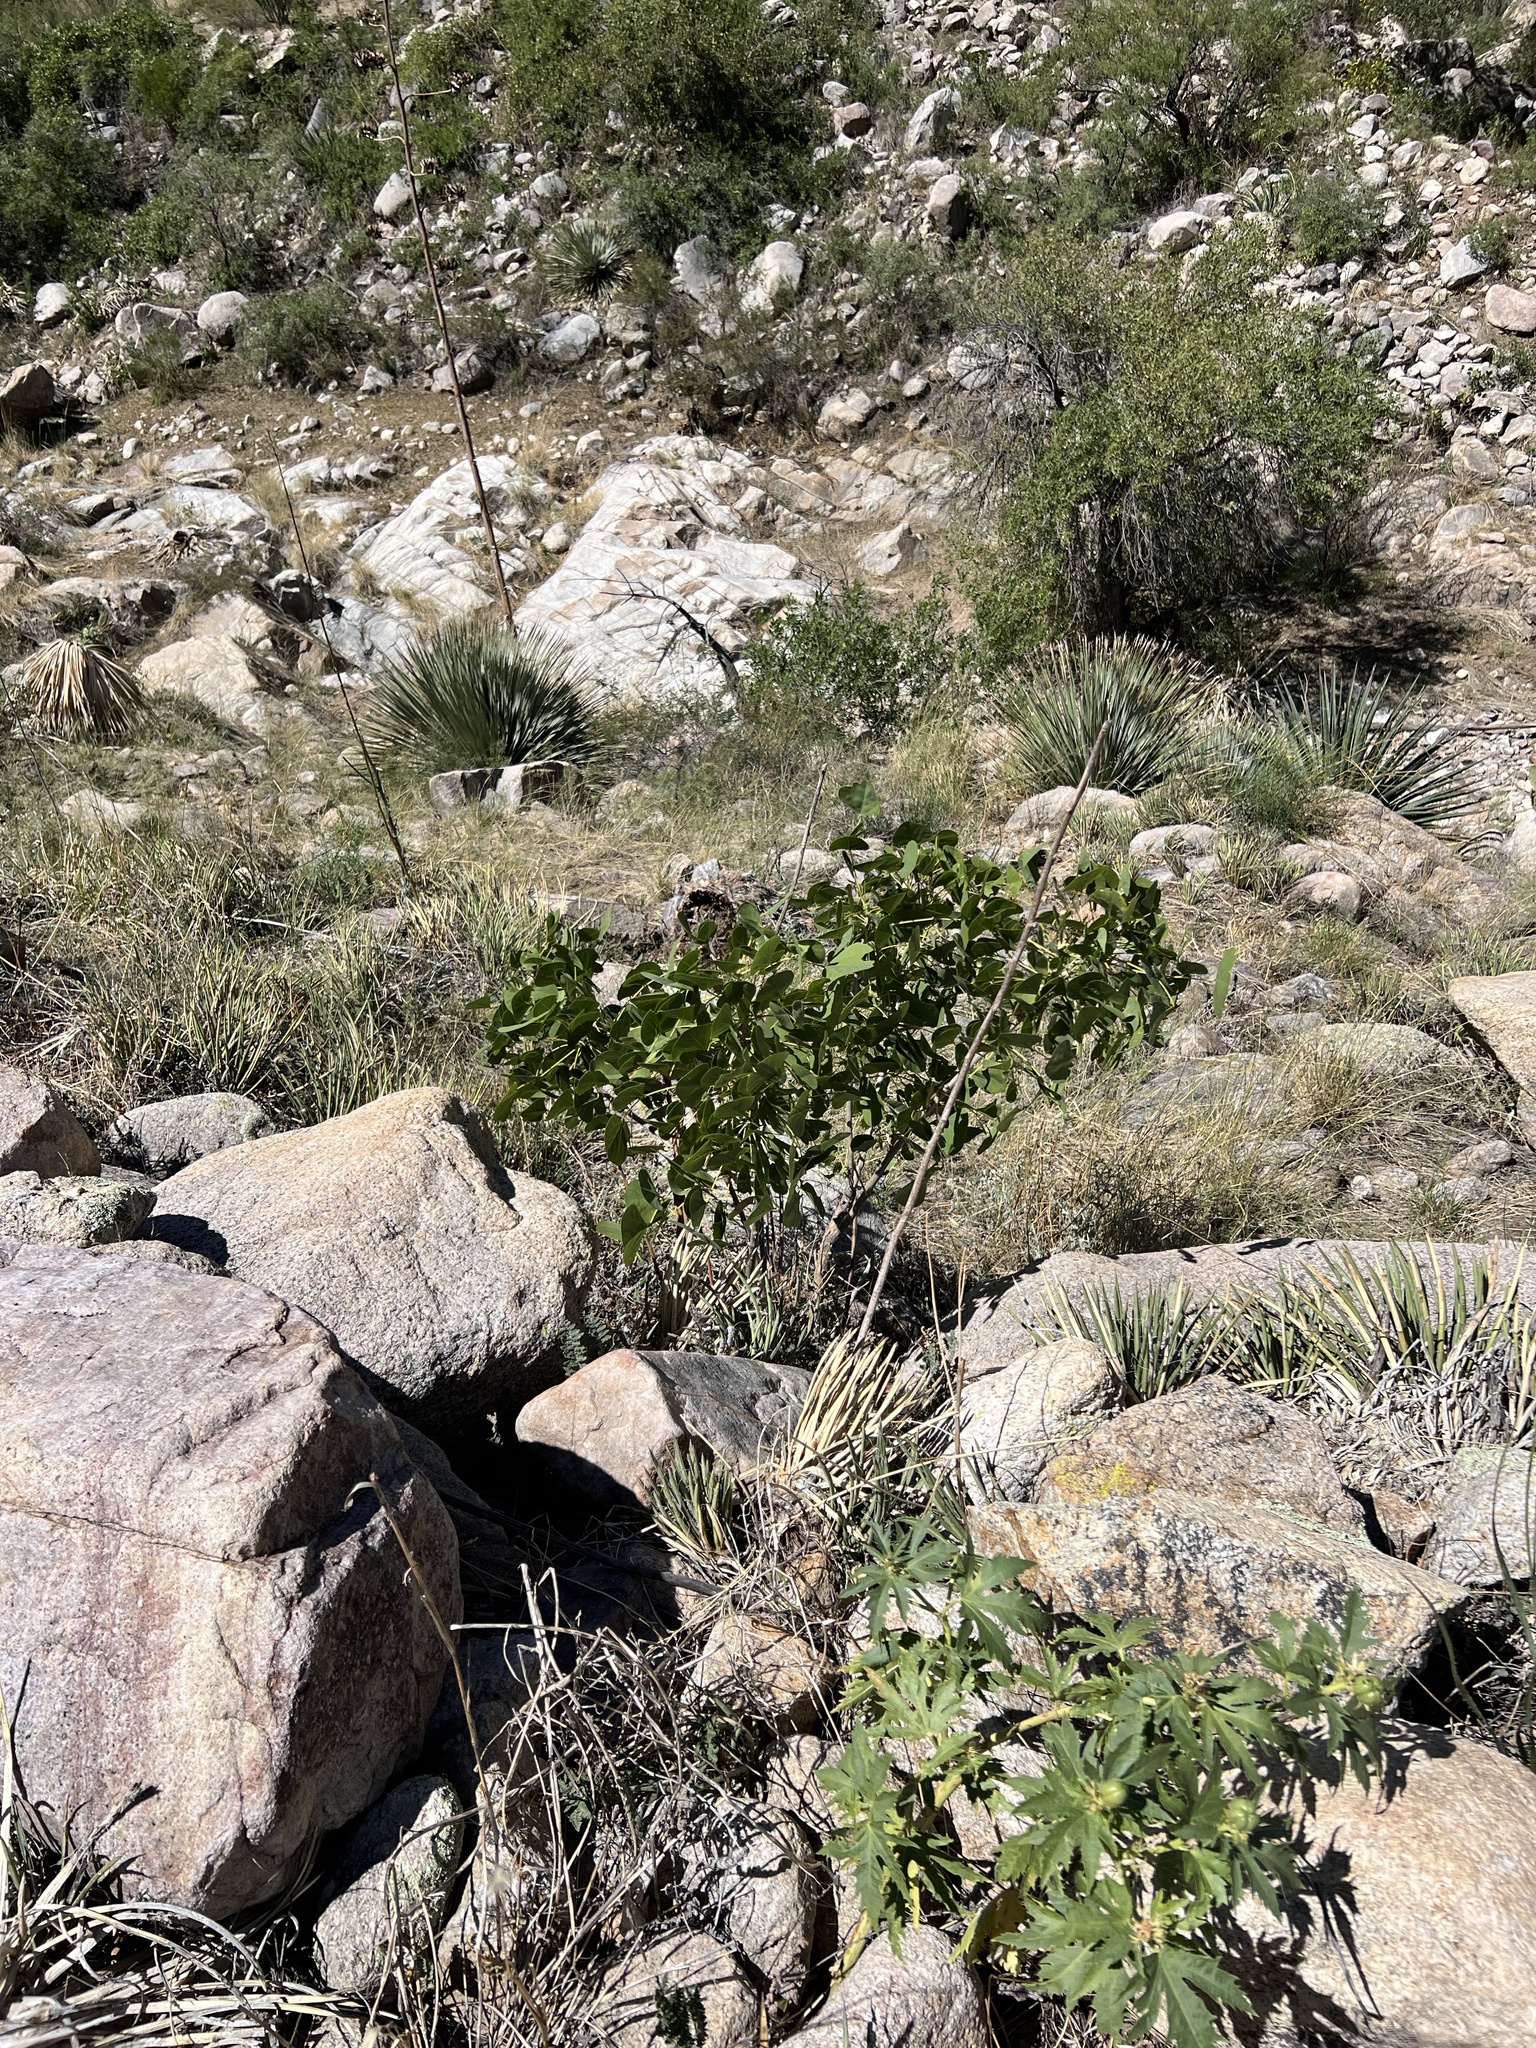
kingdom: Plantae
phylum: Tracheophyta
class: Magnoliopsida
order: Fabales
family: Fabaceae
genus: Erythrina
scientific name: Erythrina flabelliformis
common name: Chilicote
